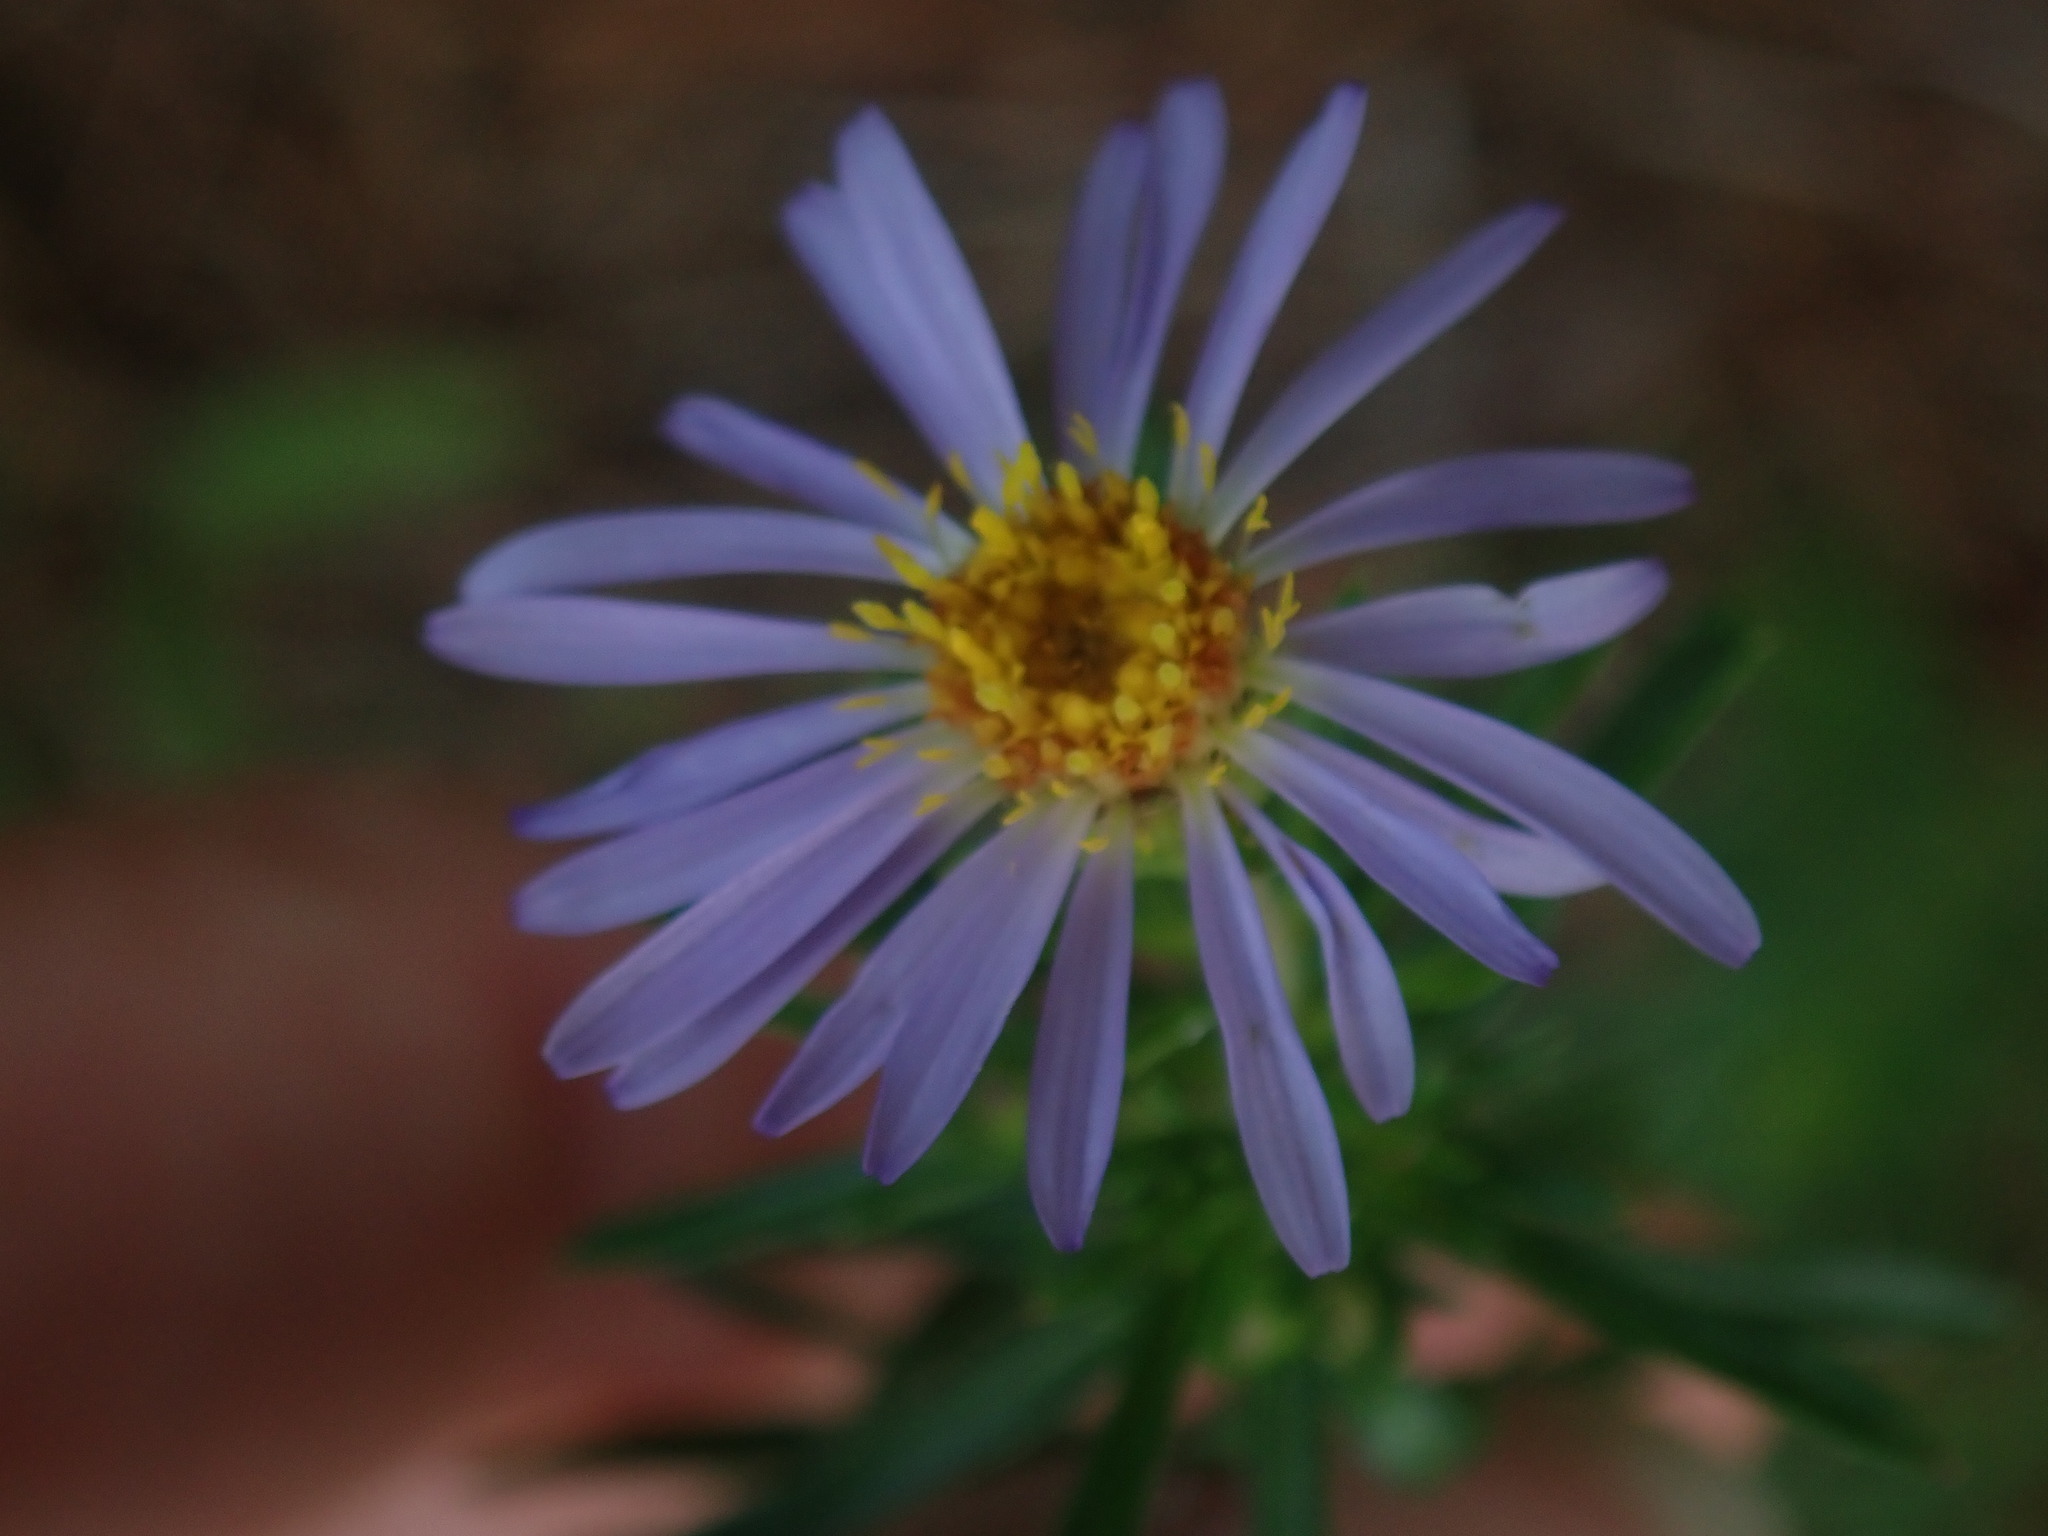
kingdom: Plantae
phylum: Tracheophyta
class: Magnoliopsida
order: Asterales
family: Asteraceae
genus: Ionactis
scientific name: Ionactis linariifolia
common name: Flax-leaf aster
